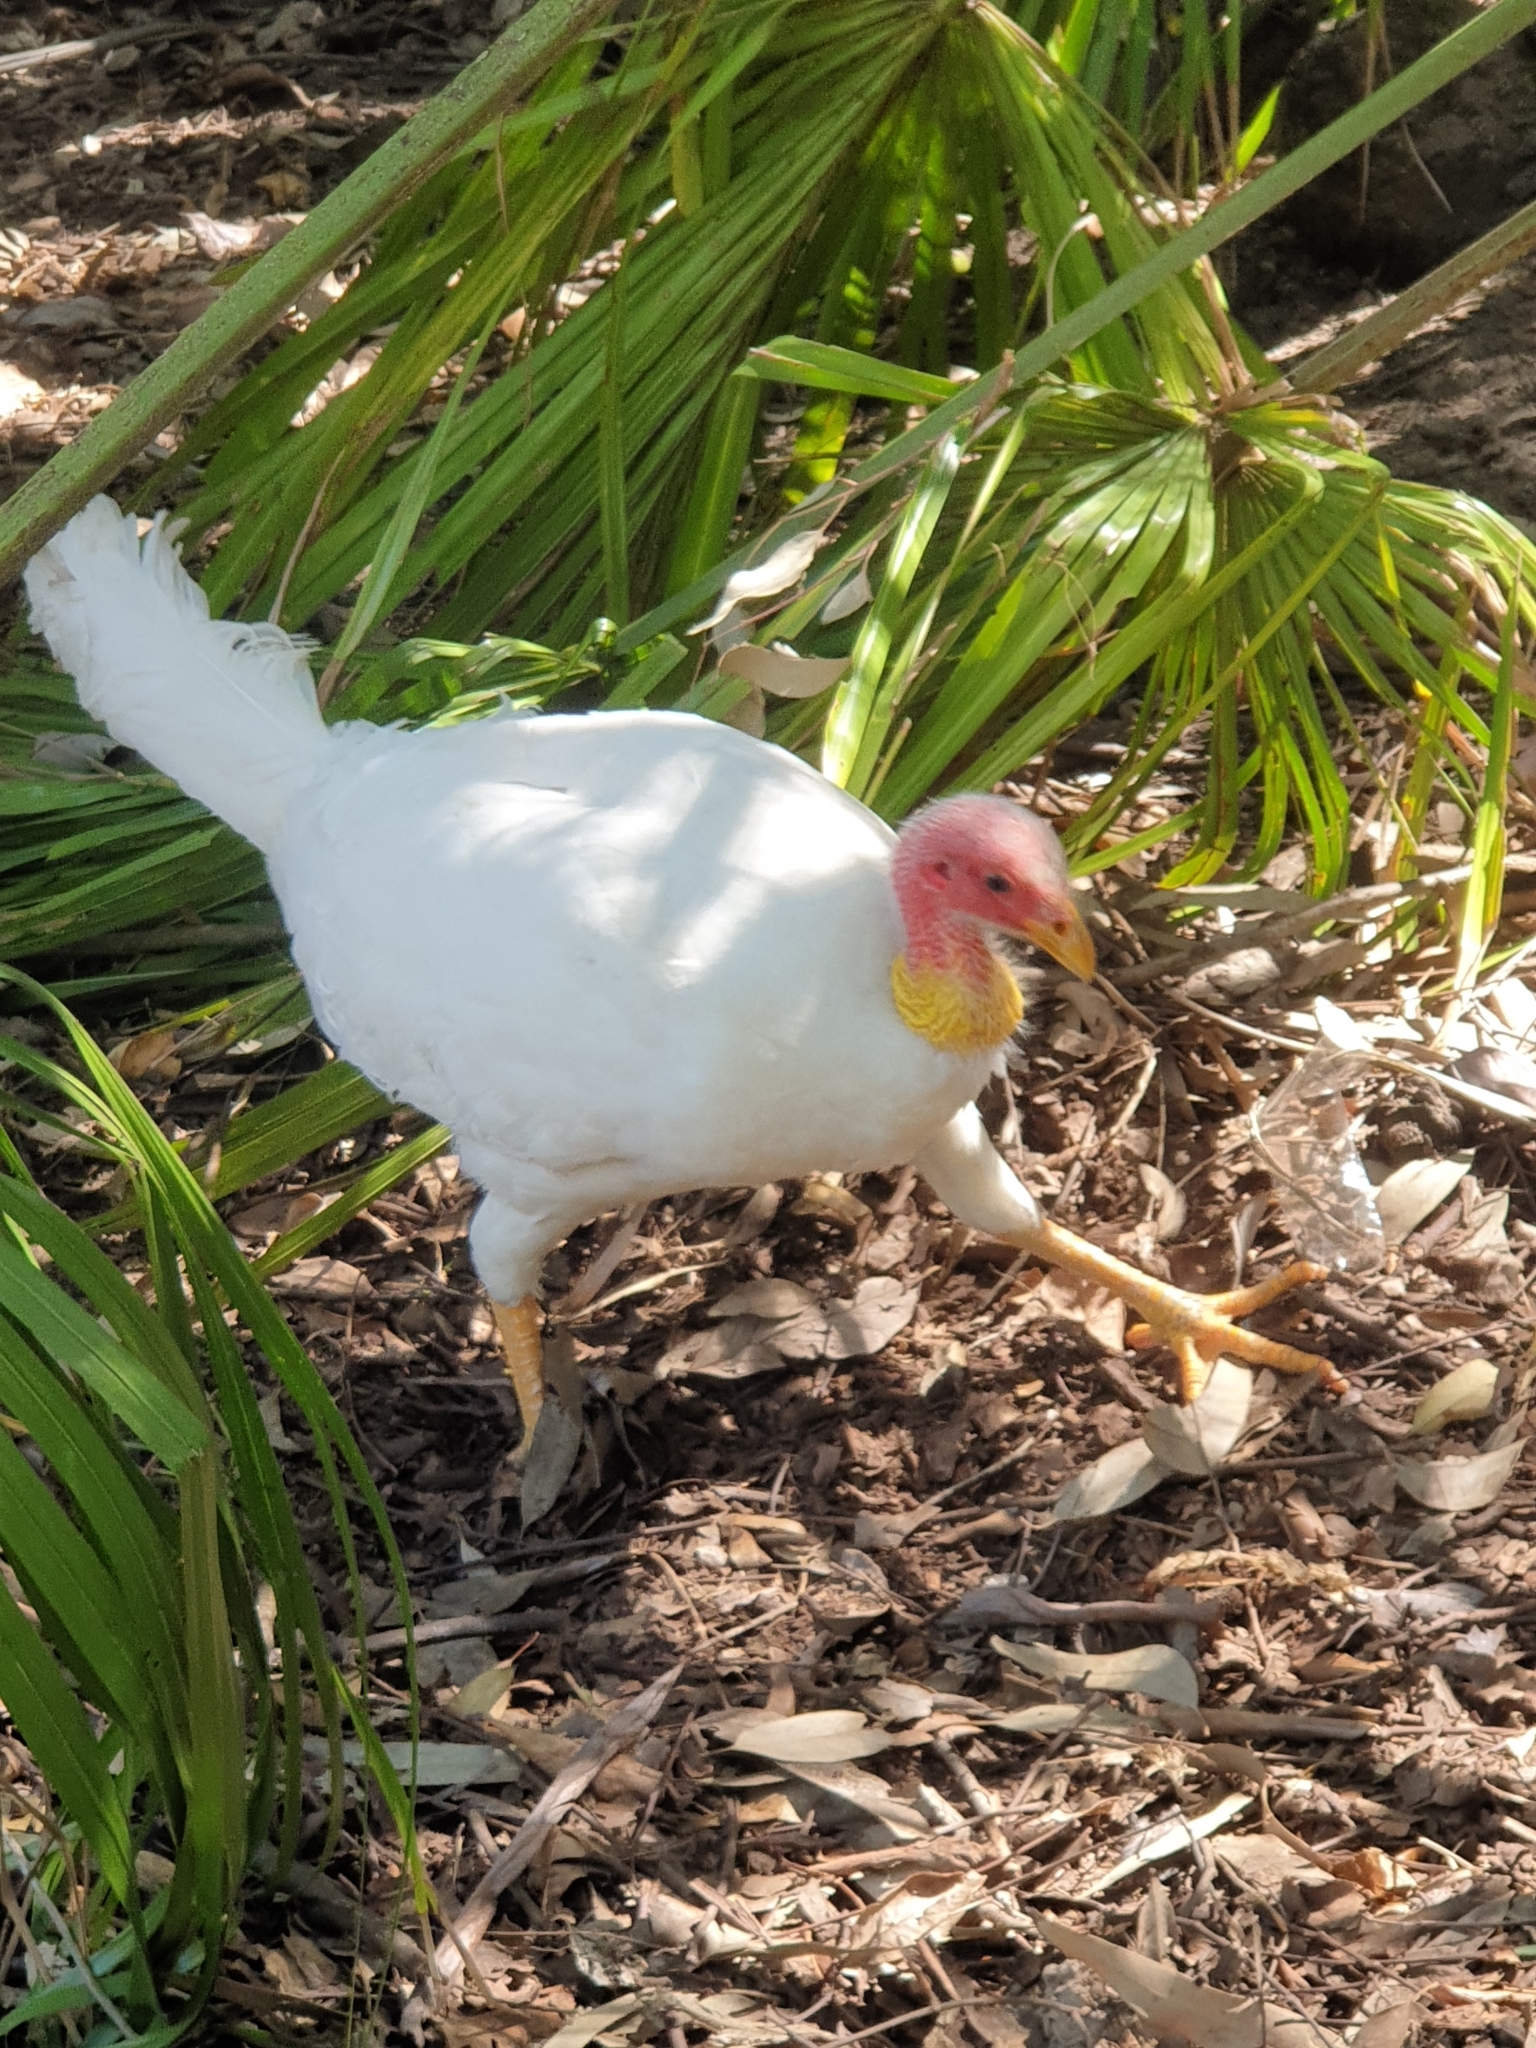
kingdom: Animalia
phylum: Chordata
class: Aves
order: Galliformes
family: Megapodiidae
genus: Alectura
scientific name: Alectura lathami
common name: Australian brushturkey
